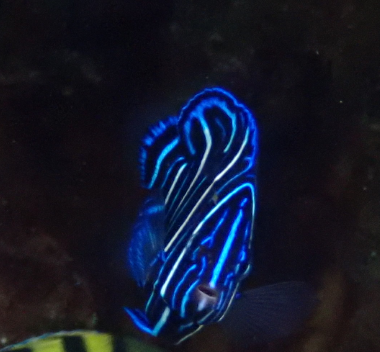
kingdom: Animalia
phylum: Chordata
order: Perciformes
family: Pomacanthidae
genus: Pomacanthus
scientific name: Pomacanthus semicirculatus
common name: Semicircle angelfish
